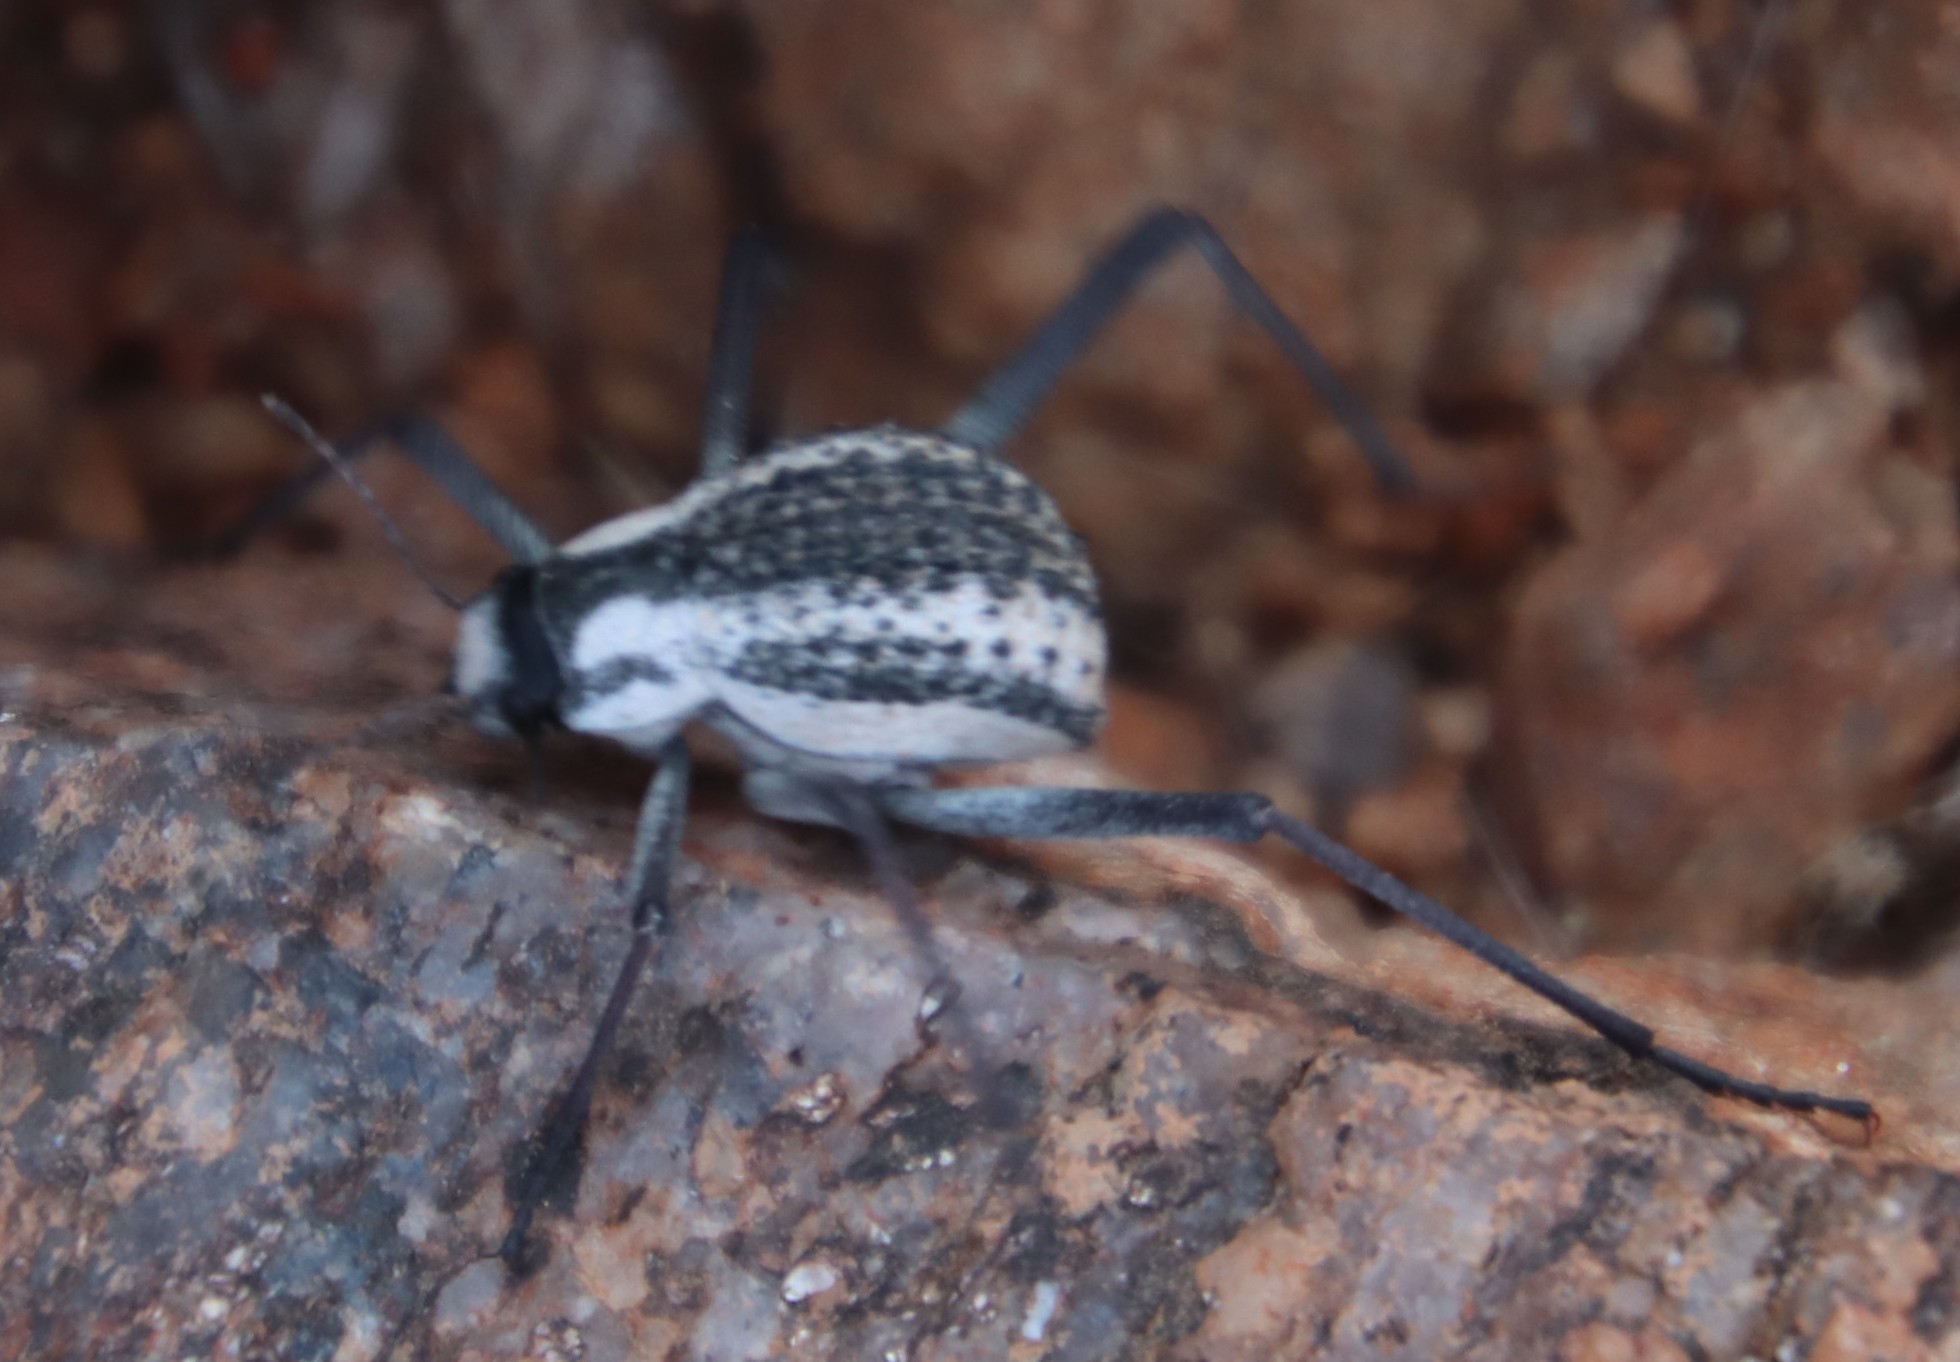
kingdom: Animalia
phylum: Arthropoda
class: Insecta
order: Coleoptera
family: Tenebrionidae
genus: Stenocara
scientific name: Stenocara
